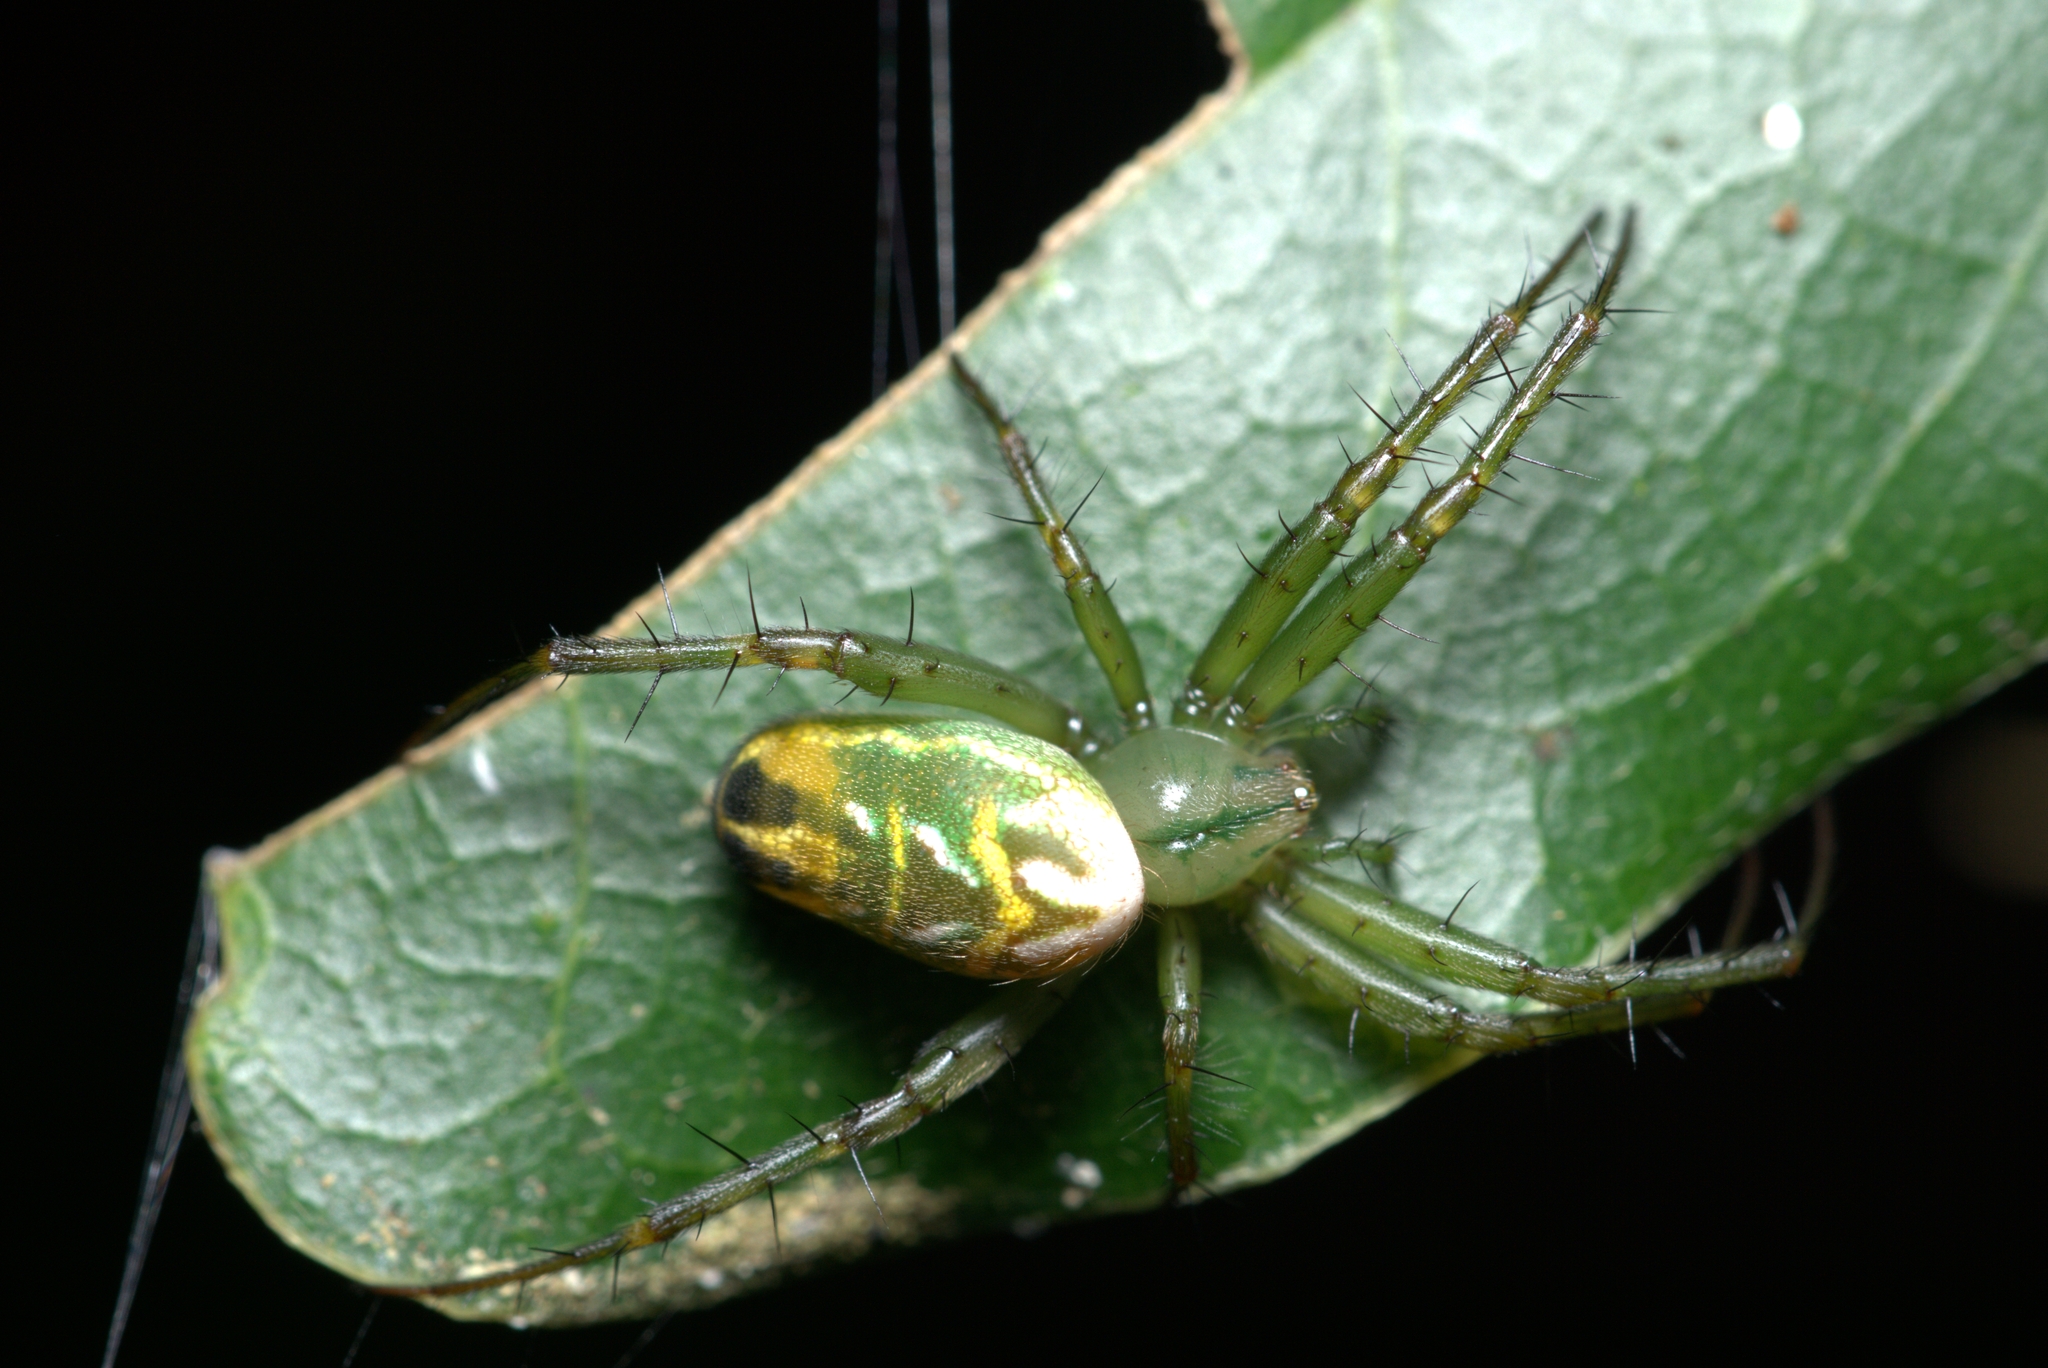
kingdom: Animalia
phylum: Arthropoda
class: Arachnida
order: Araneae
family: Araneidae
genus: Mangora
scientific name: Mangora strenua
